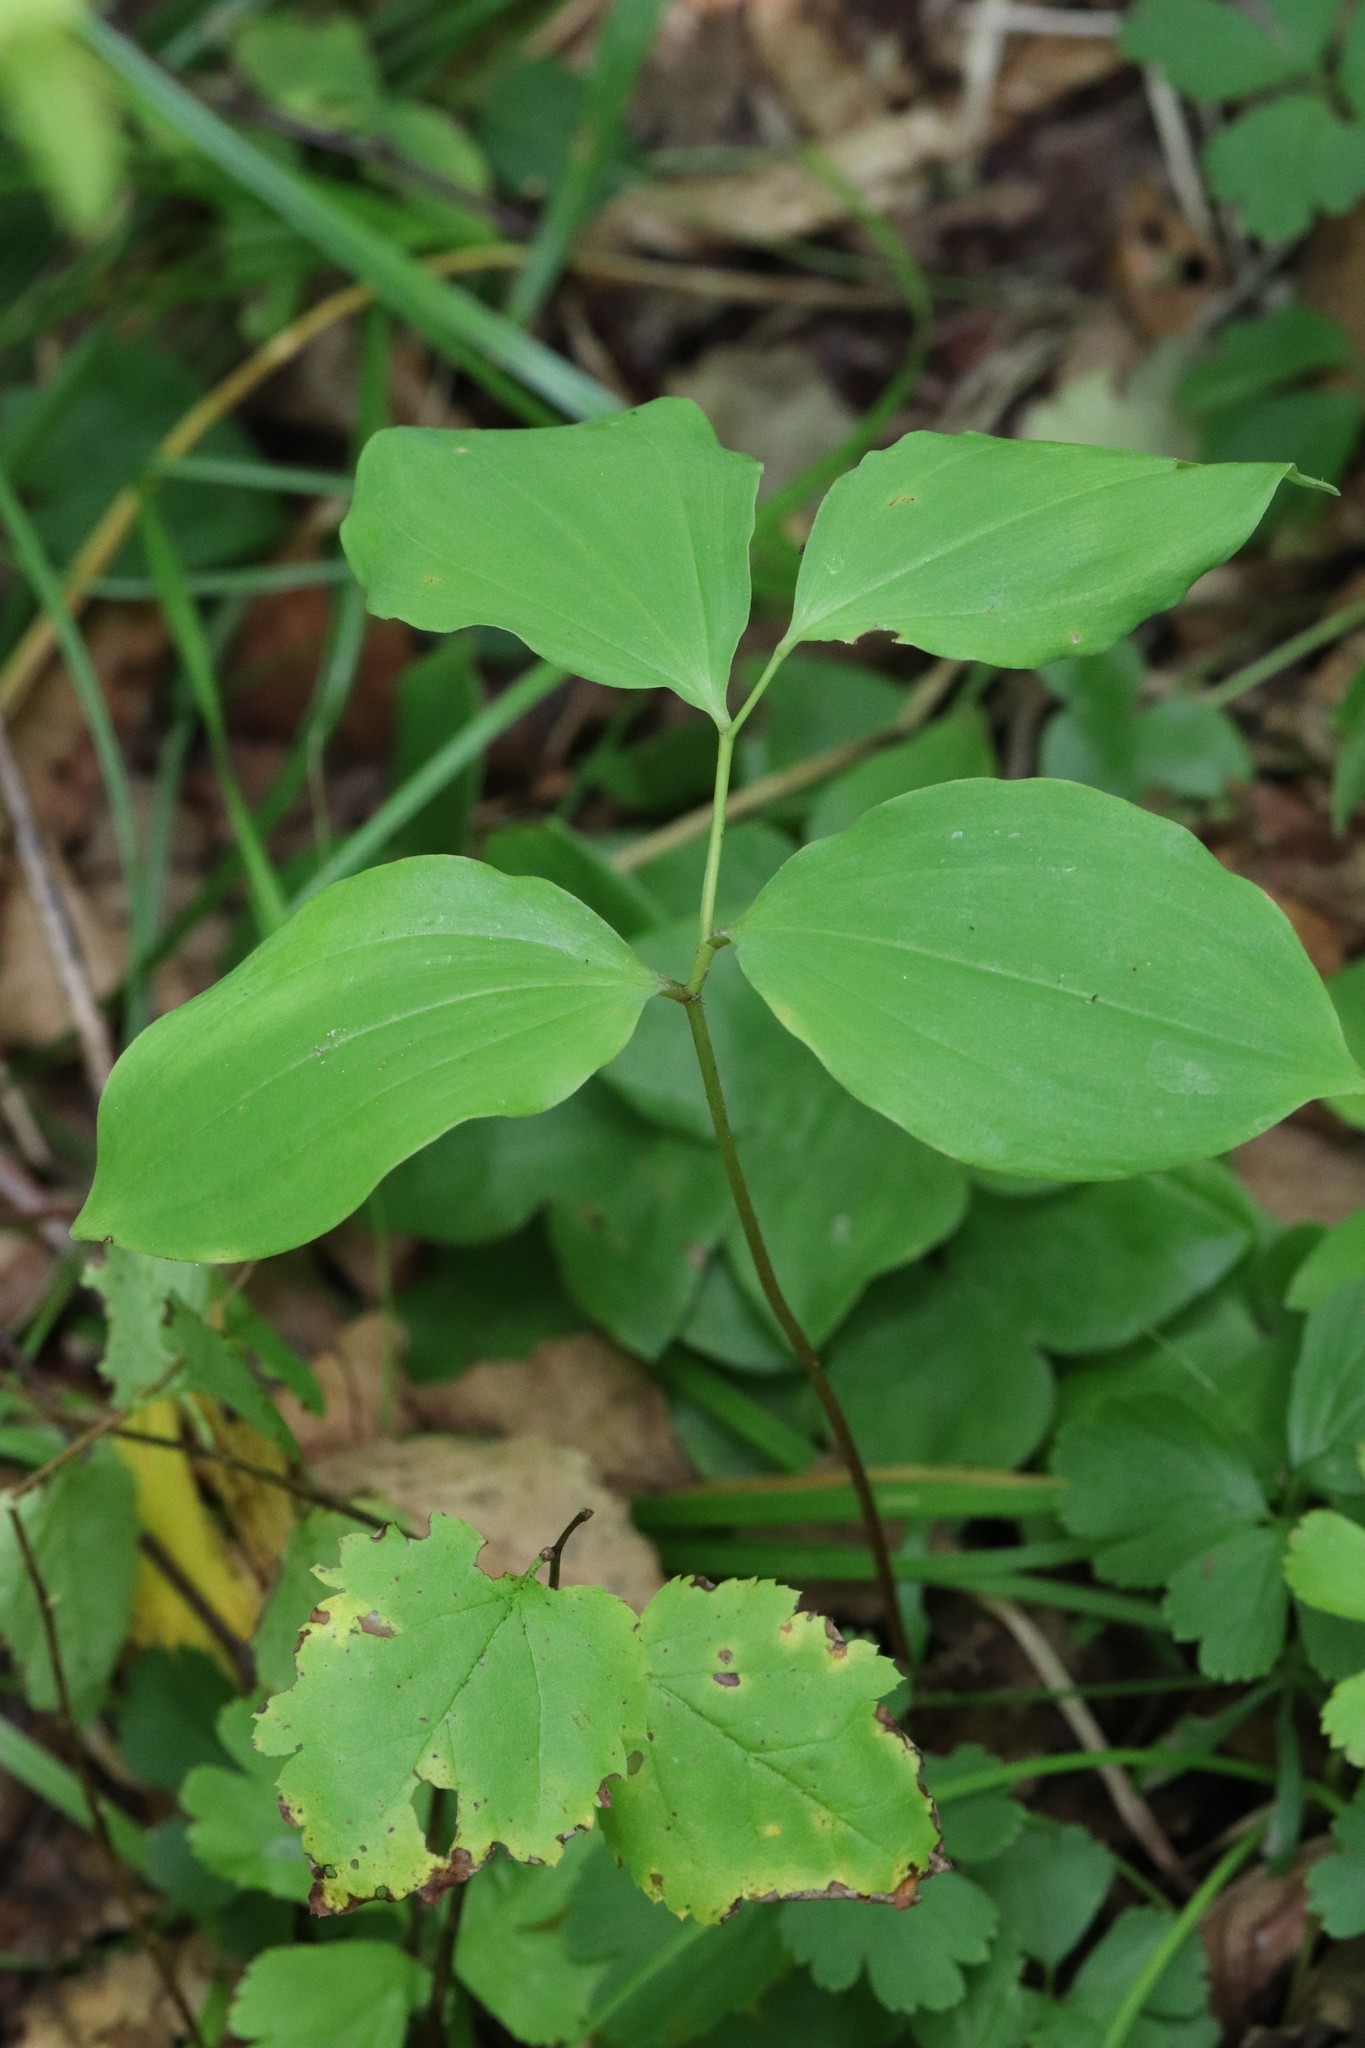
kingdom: Plantae
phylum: Tracheophyta
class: Liliopsida
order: Asparagales
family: Asparagaceae
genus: Polygonatum
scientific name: Polygonatum involucratum
